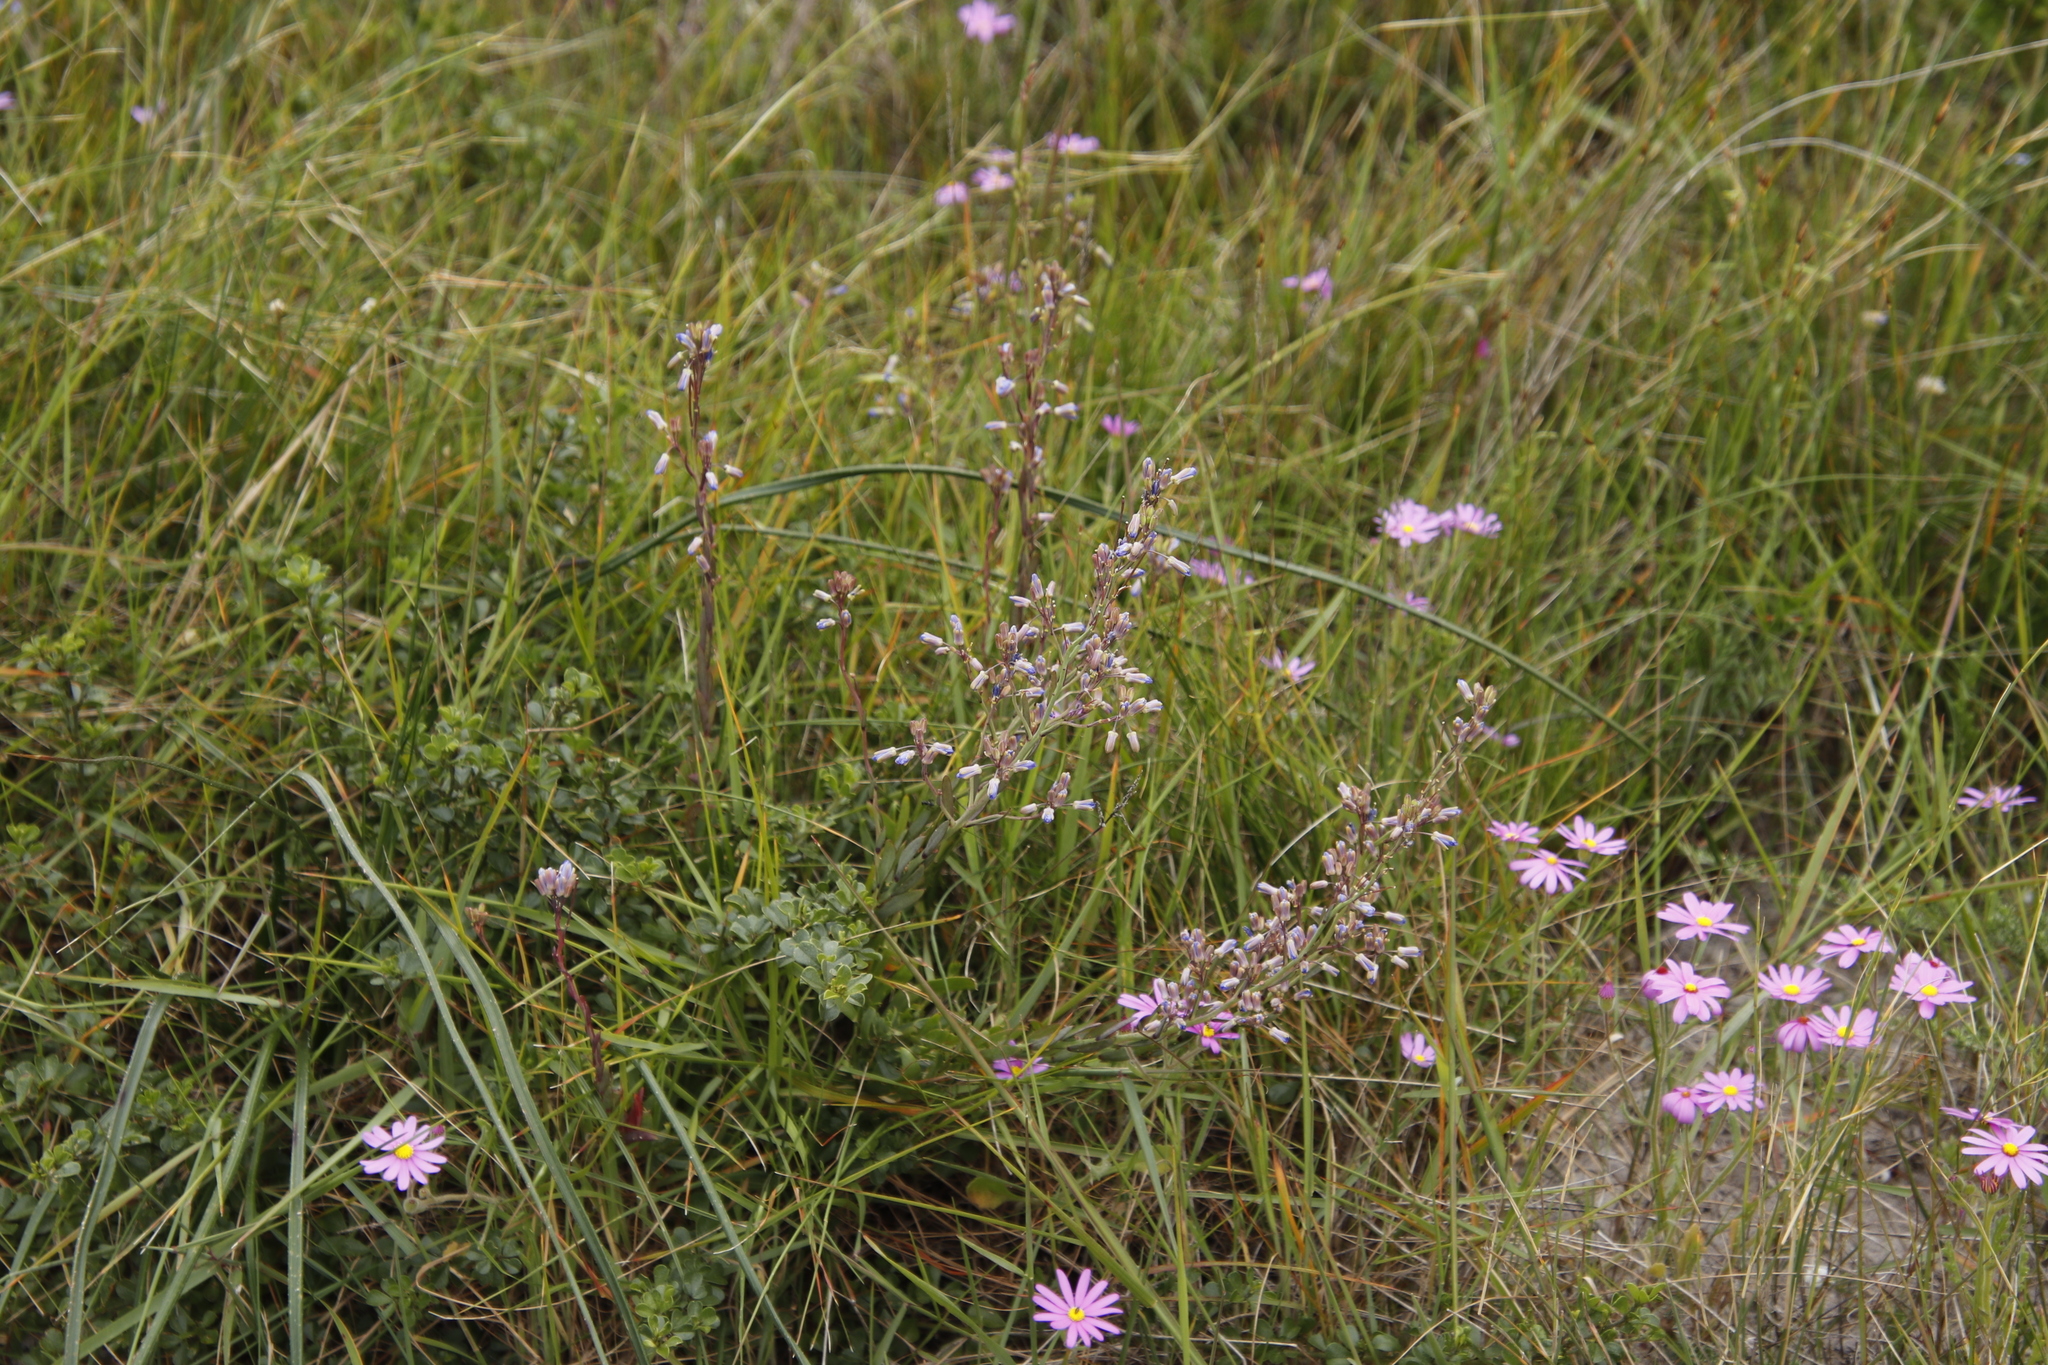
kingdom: Plantae
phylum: Tracheophyta
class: Magnoliopsida
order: Brassicales
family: Brassicaceae
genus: Heliophila
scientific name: Heliophila linearis
